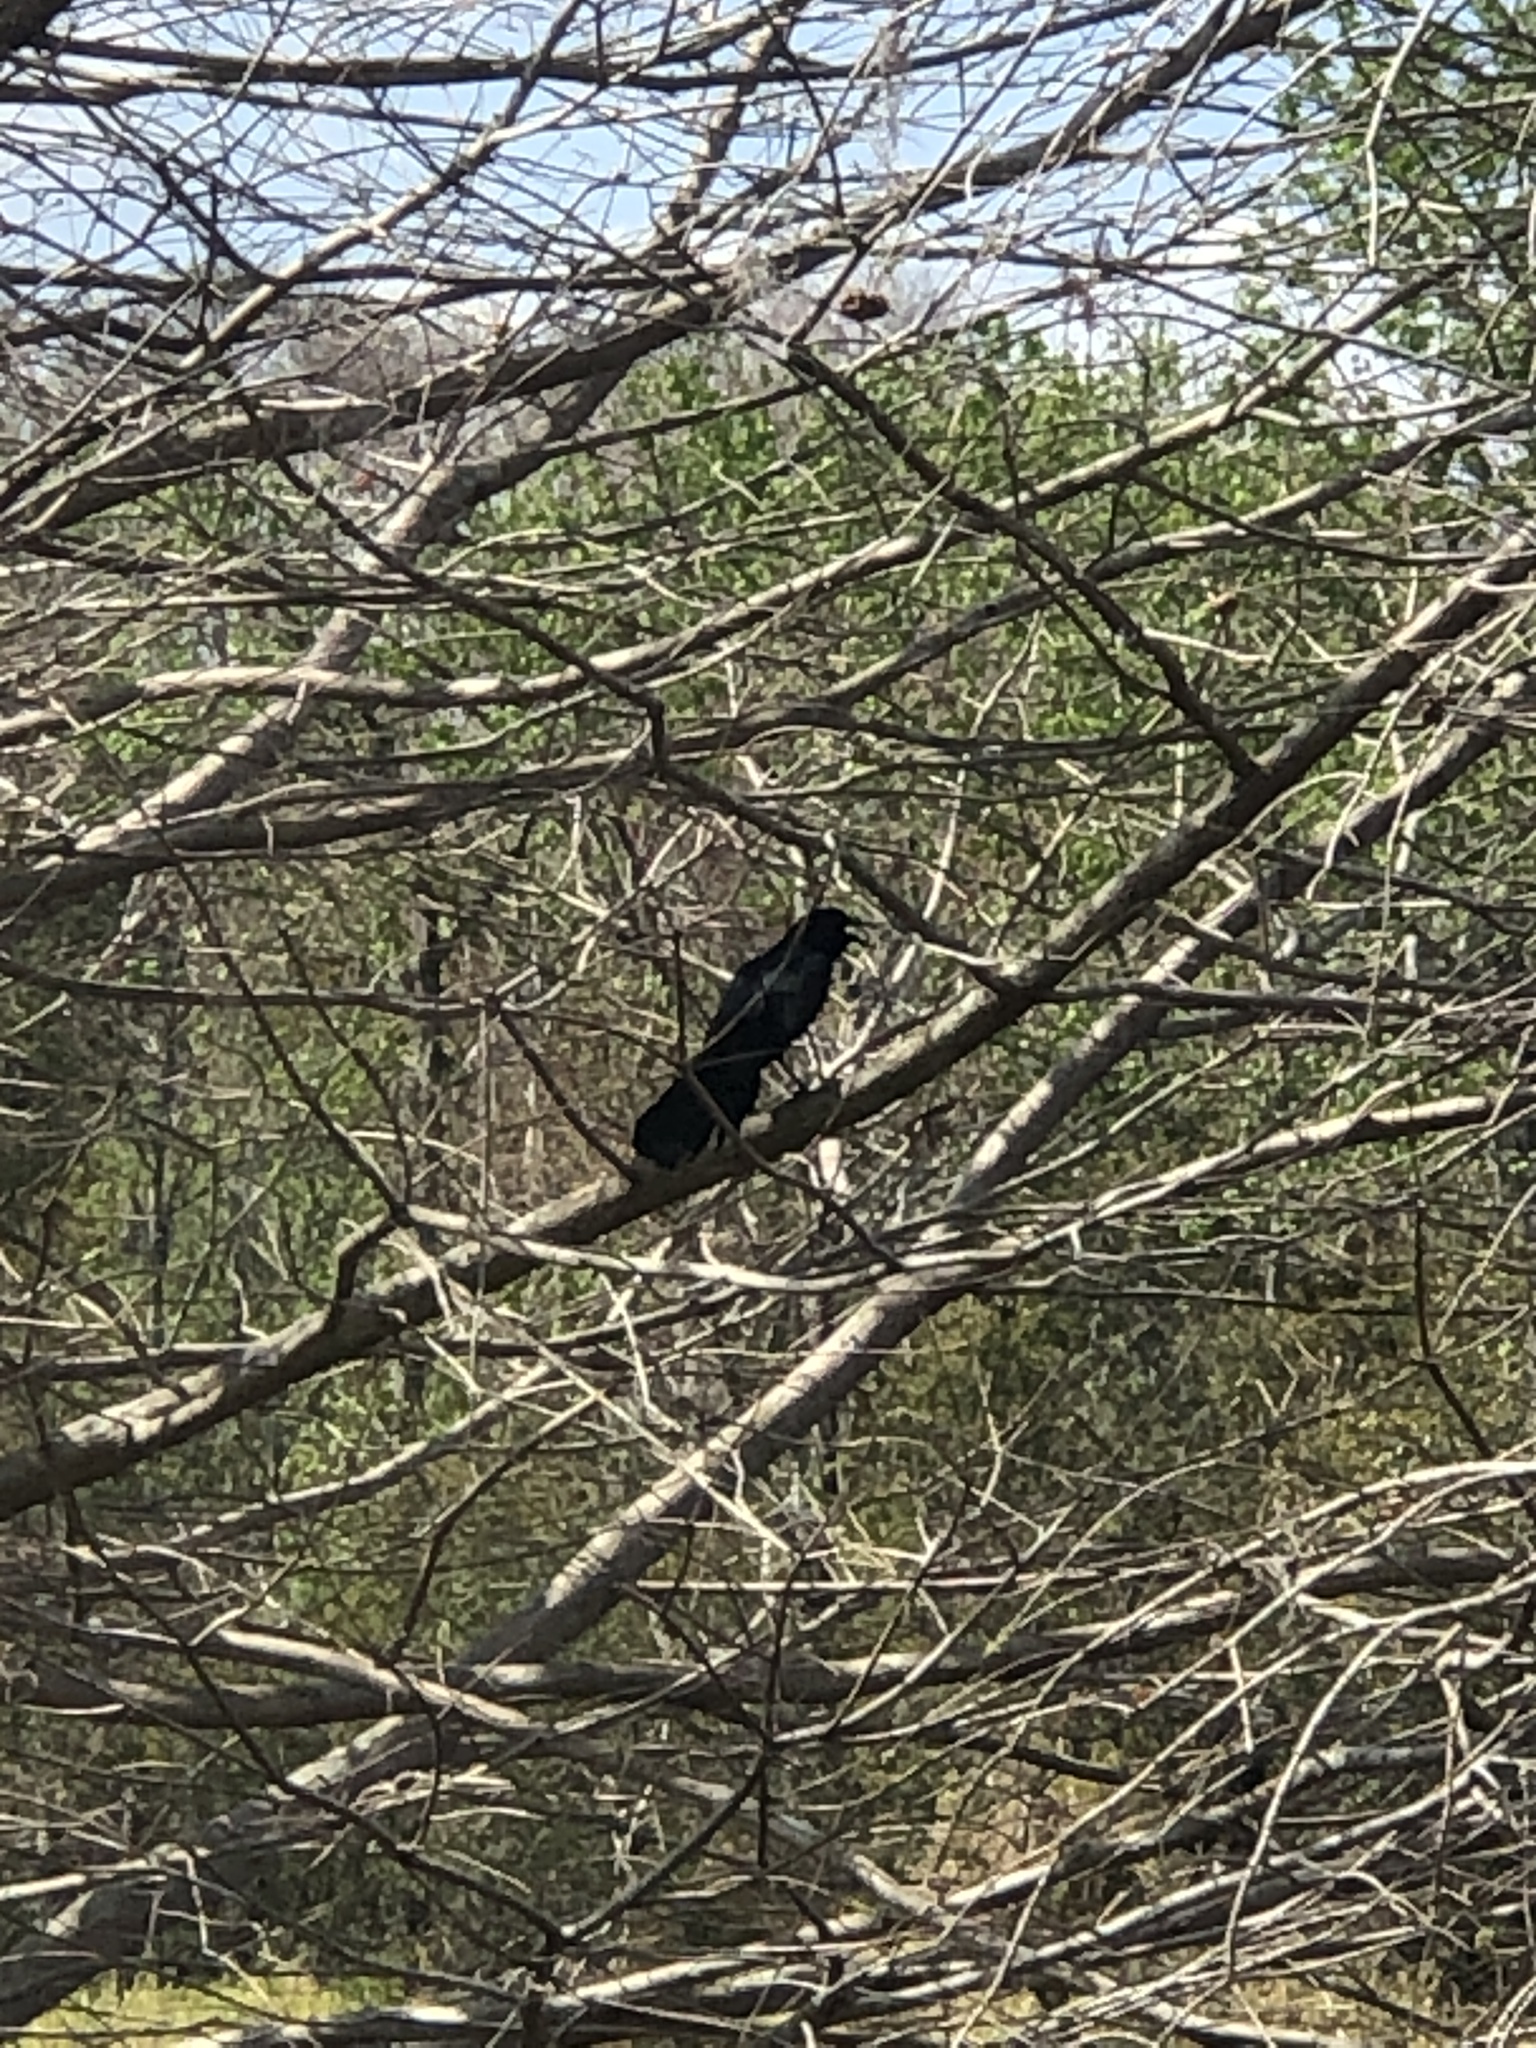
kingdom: Animalia
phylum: Chordata
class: Aves
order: Passeriformes
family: Icteridae
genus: Quiscalus
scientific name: Quiscalus major
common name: Boat-tailed grackle
